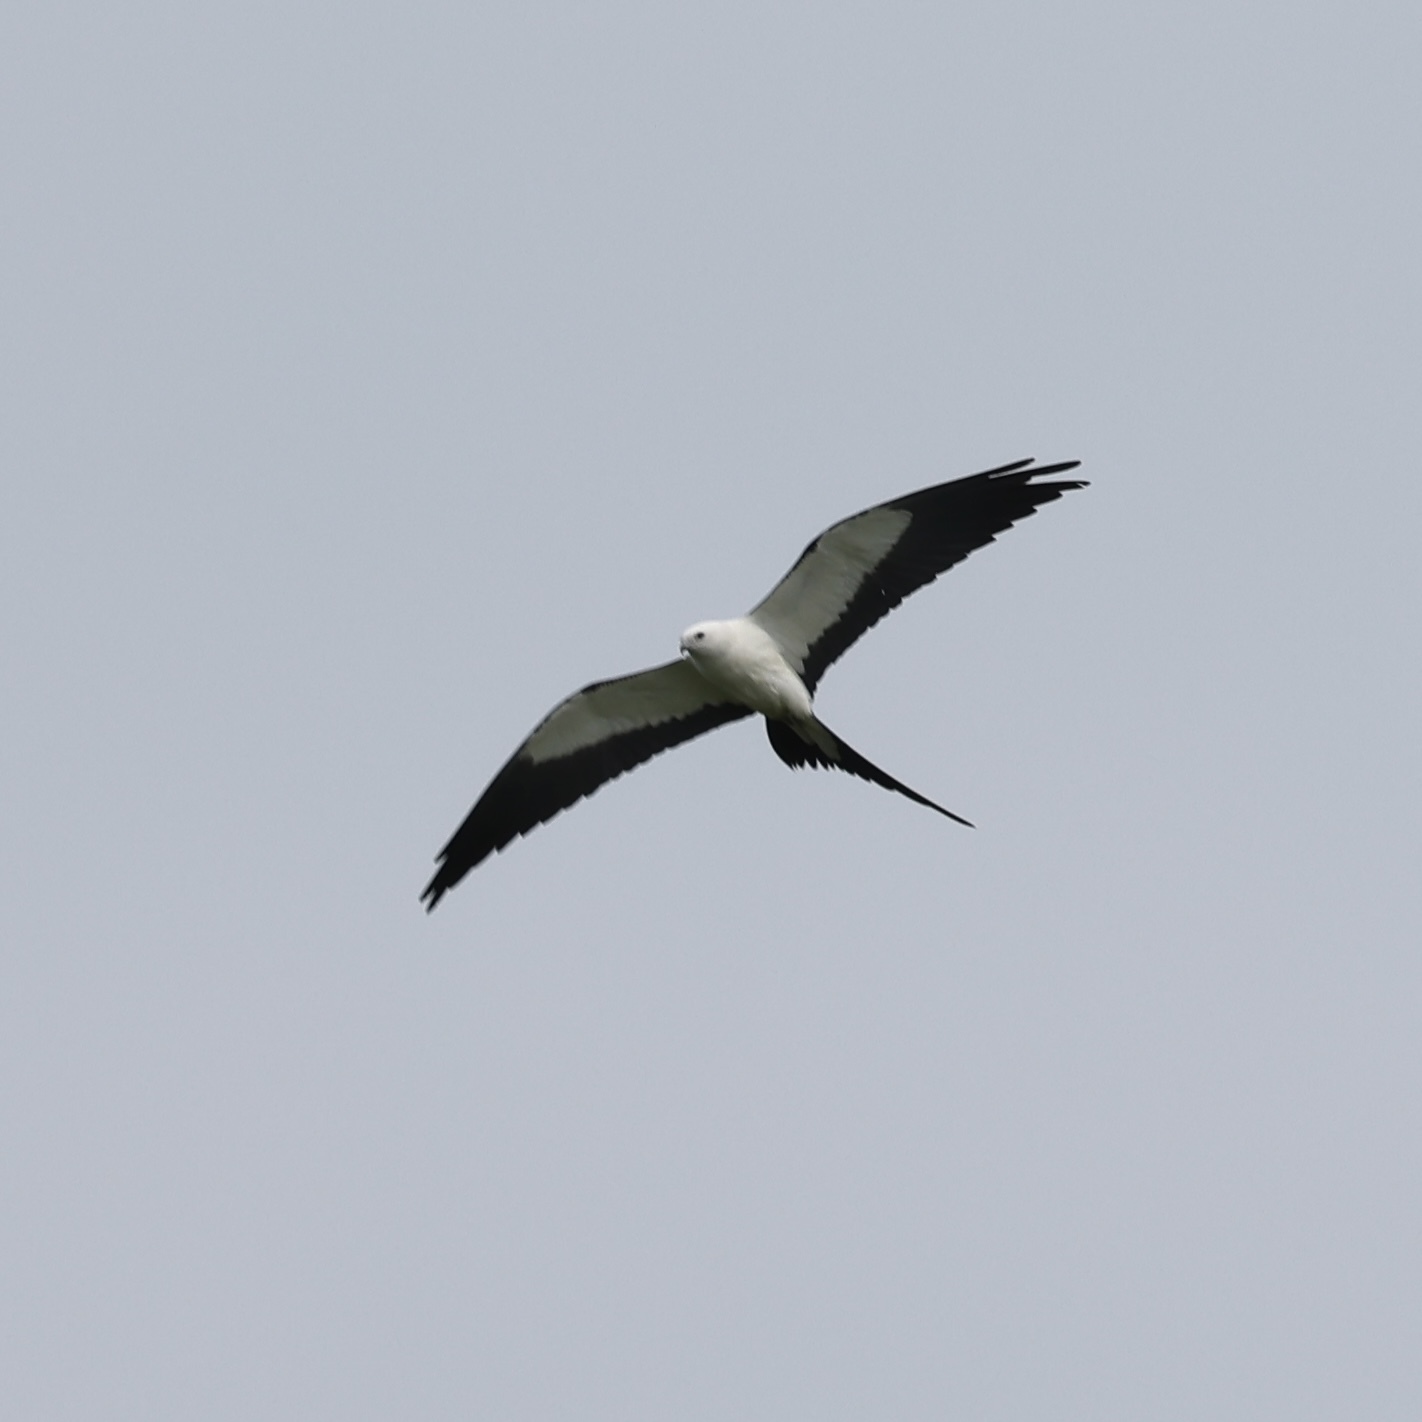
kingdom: Animalia
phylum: Chordata
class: Aves
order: Accipitriformes
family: Accipitridae
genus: Elanoides
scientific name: Elanoides forficatus
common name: Swallow-tailed kite
